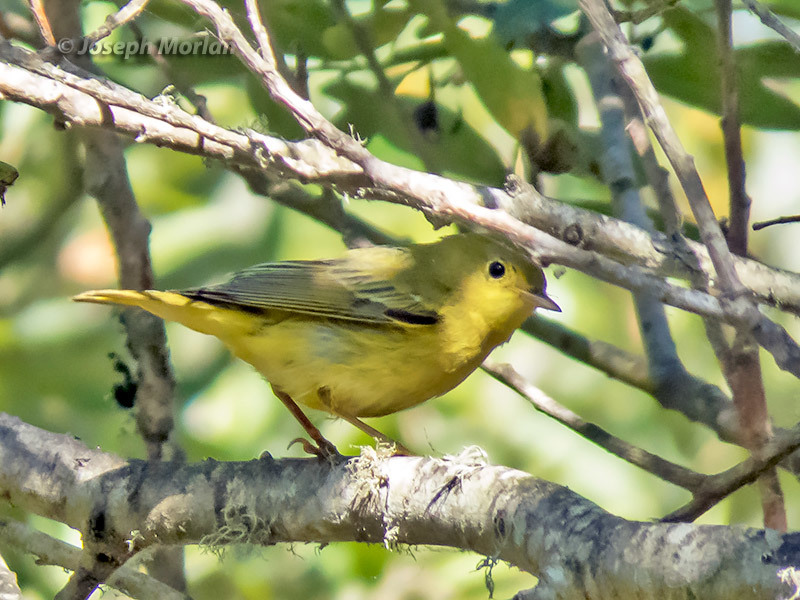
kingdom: Animalia
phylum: Chordata
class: Aves
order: Passeriformes
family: Parulidae
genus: Setophaga
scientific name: Setophaga petechia
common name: Yellow warbler
